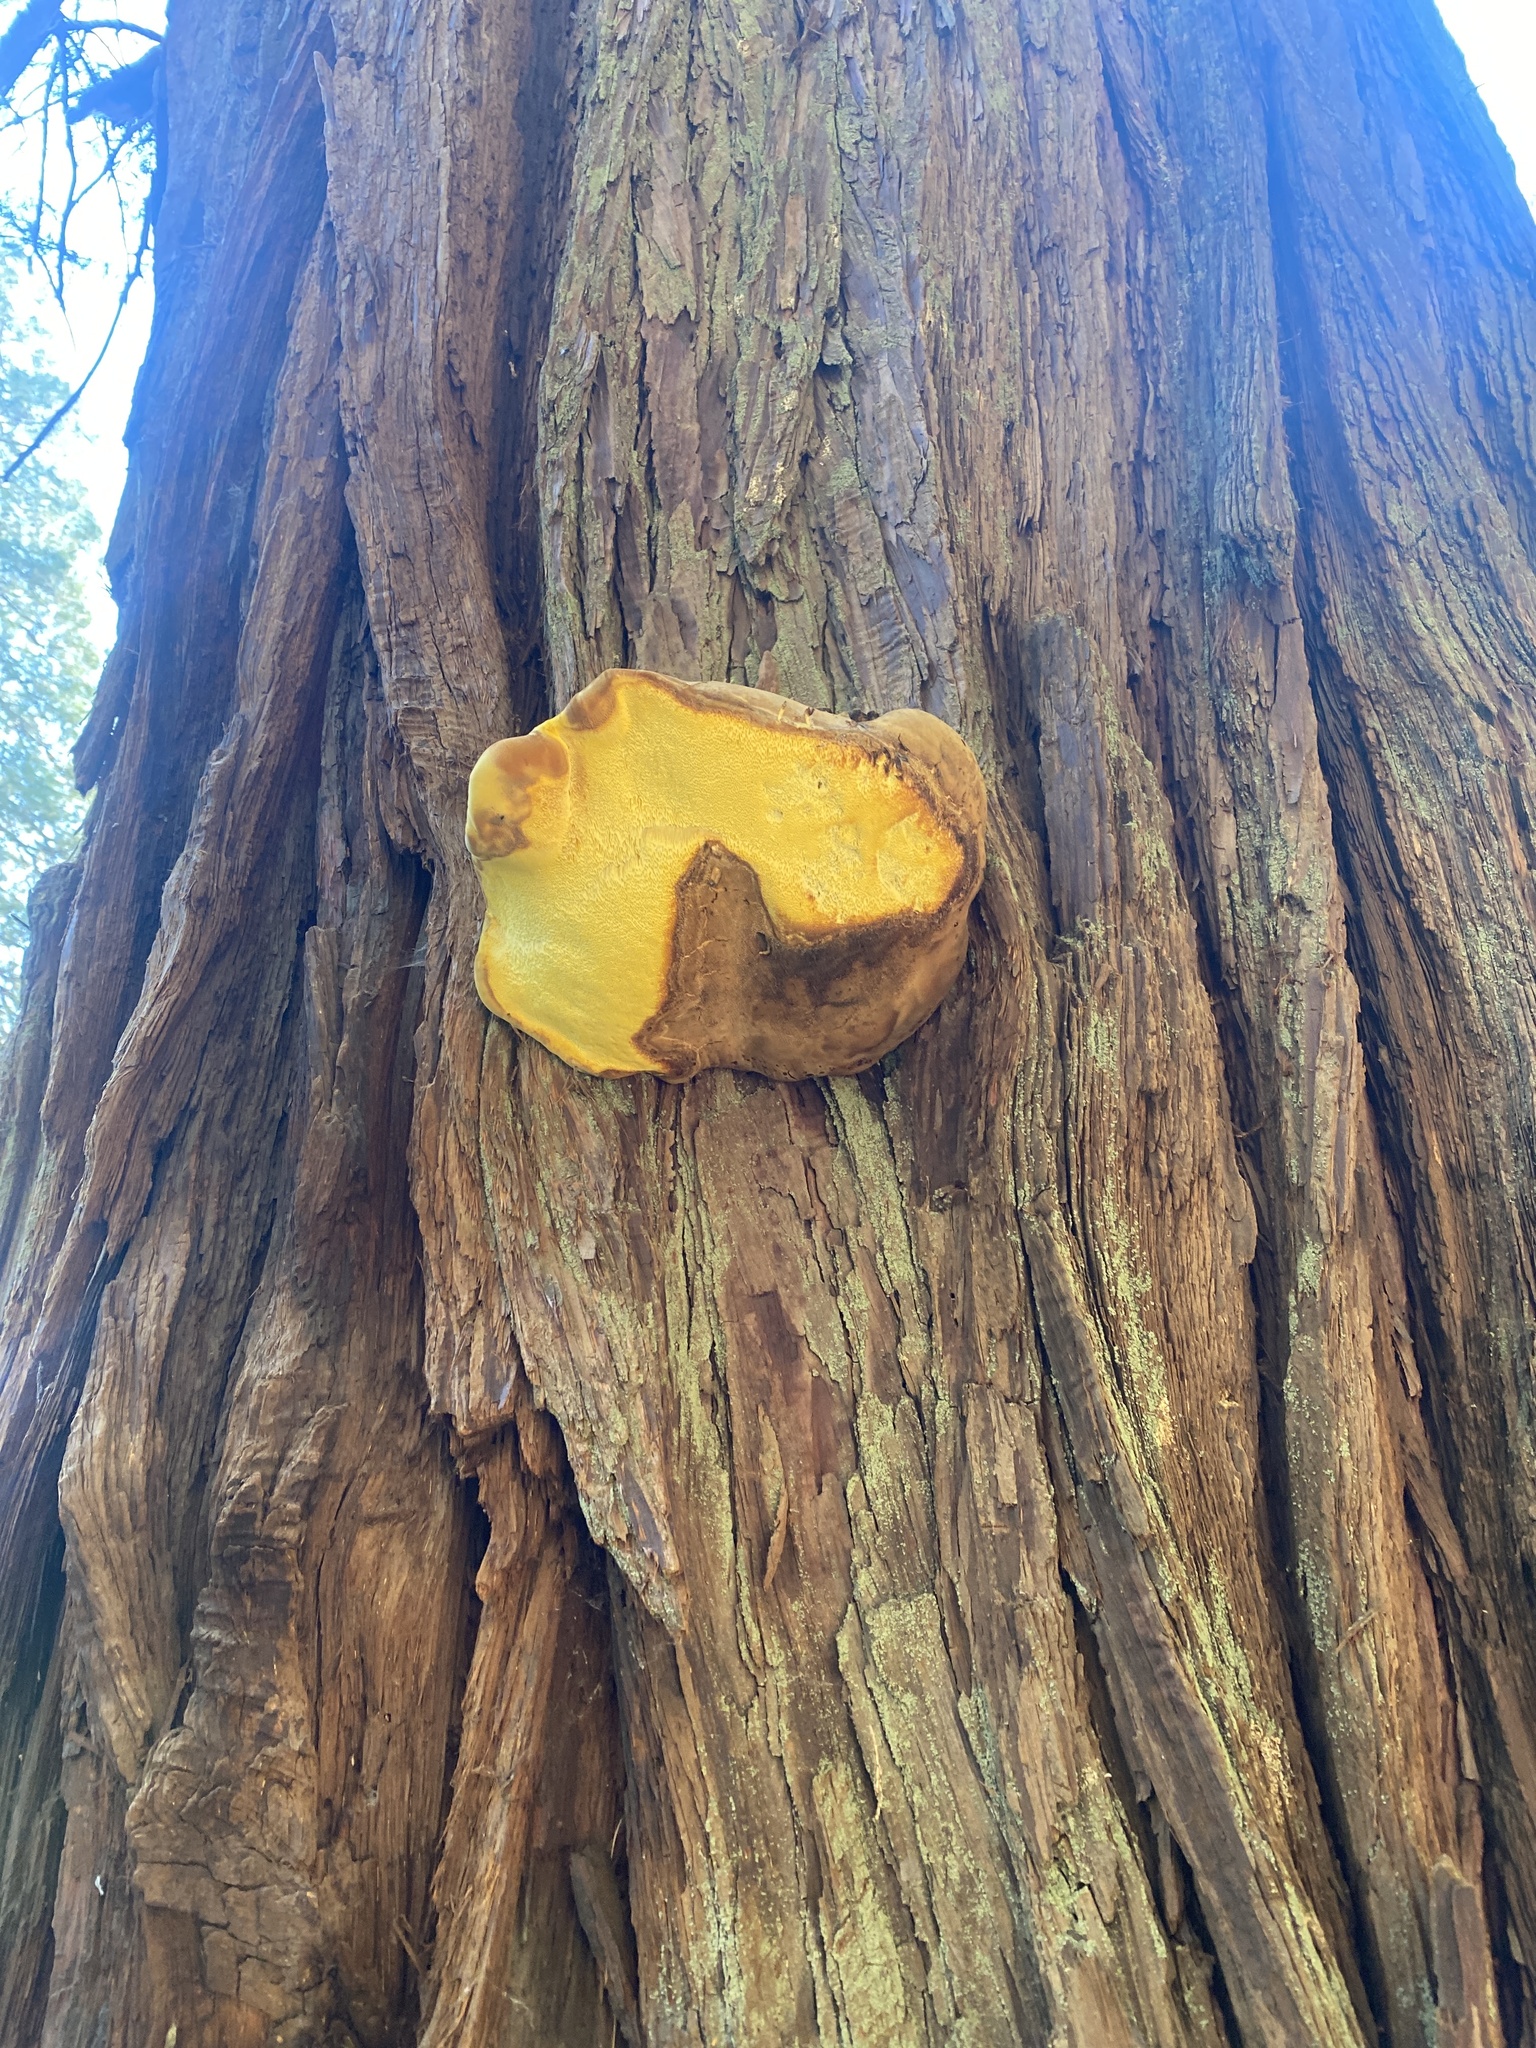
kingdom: Fungi
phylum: Basidiomycota
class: Agaricomycetes
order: Polyporales
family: Incrustoporiaceae
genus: Tyromyces
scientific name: Tyromyces amarus
